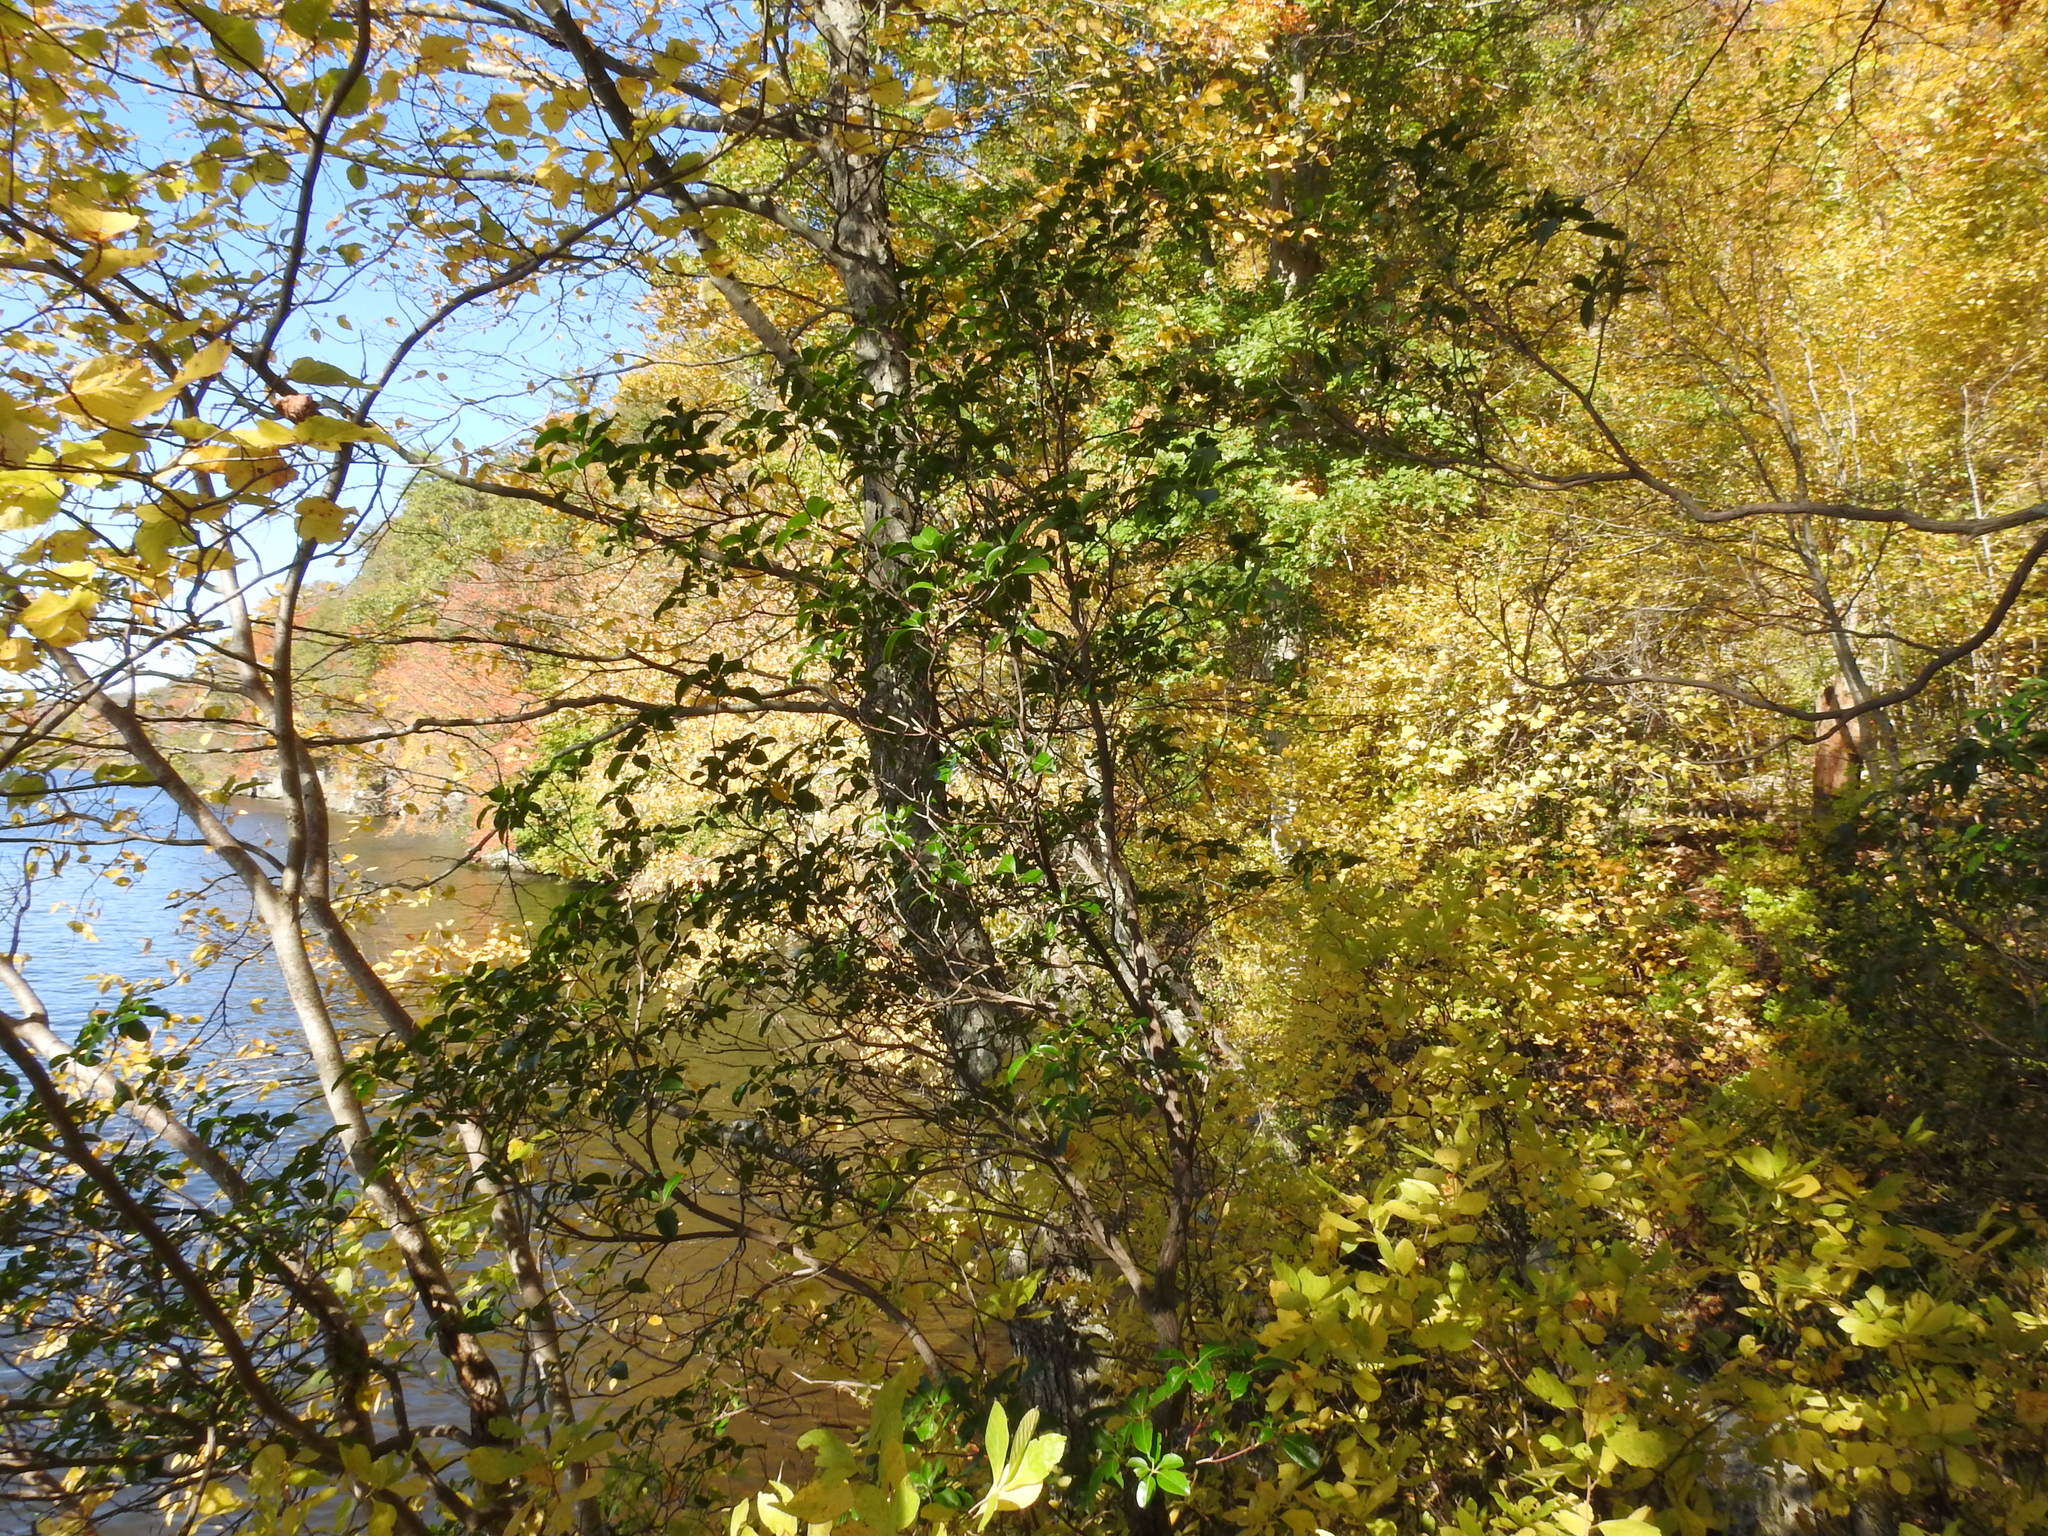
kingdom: Plantae
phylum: Tracheophyta
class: Magnoliopsida
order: Ericales
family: Ericaceae
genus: Kalmia
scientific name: Kalmia latifolia
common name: Mountain-laurel
